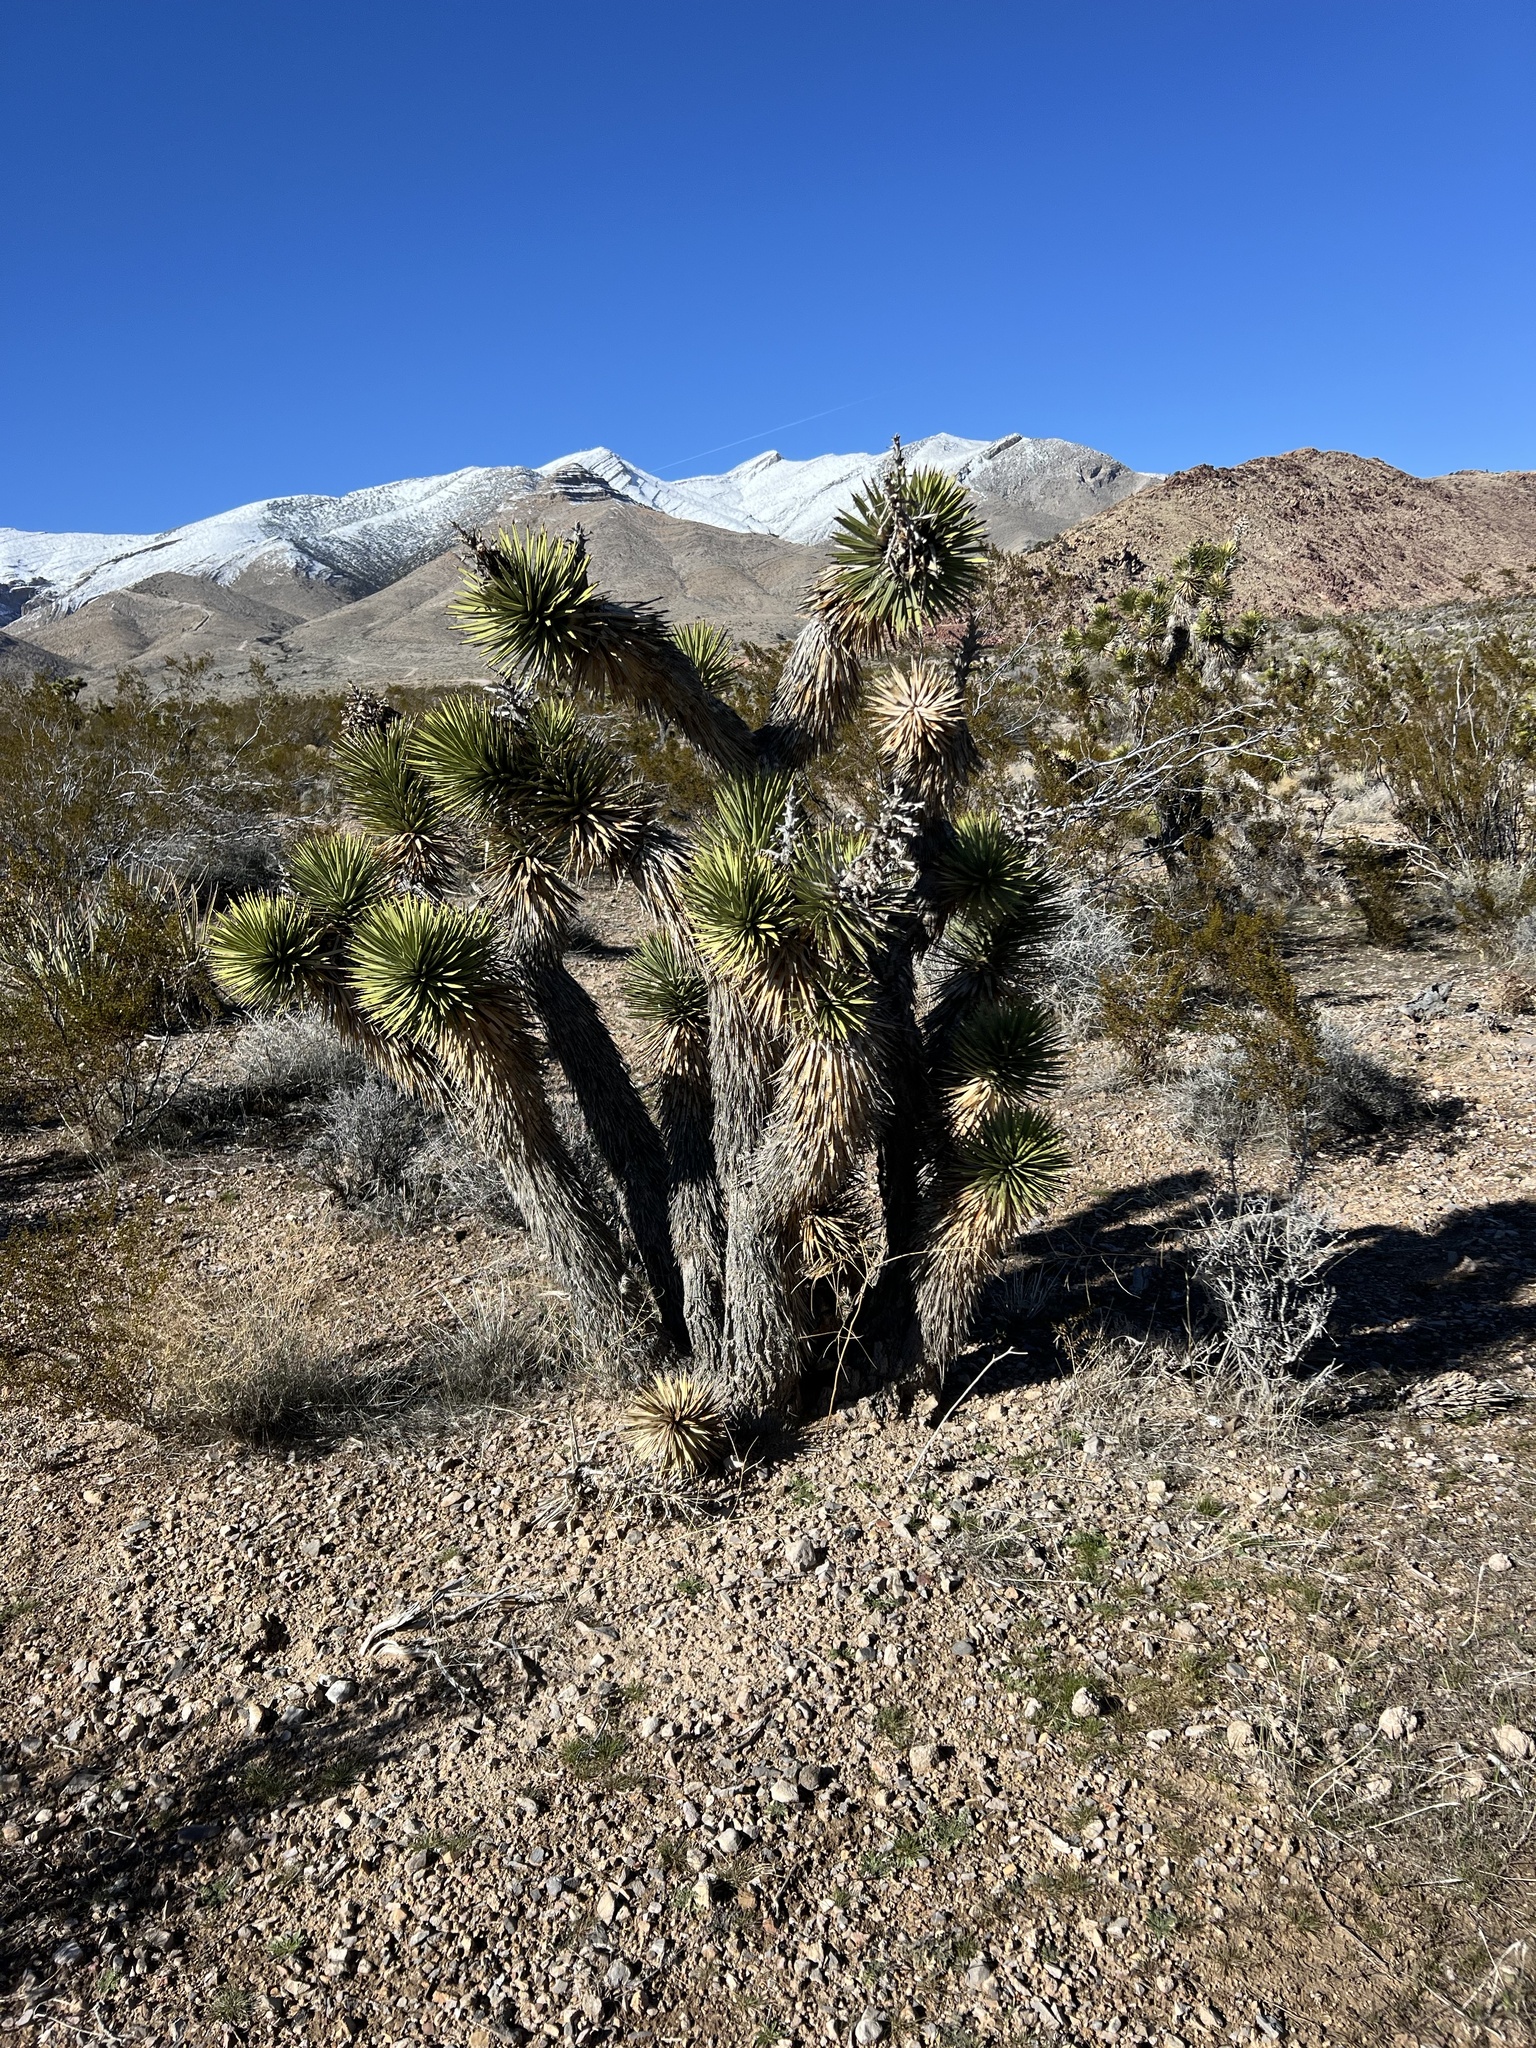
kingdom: Plantae
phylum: Tracheophyta
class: Liliopsida
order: Asparagales
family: Asparagaceae
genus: Yucca
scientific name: Yucca brevifolia
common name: Joshua tree
